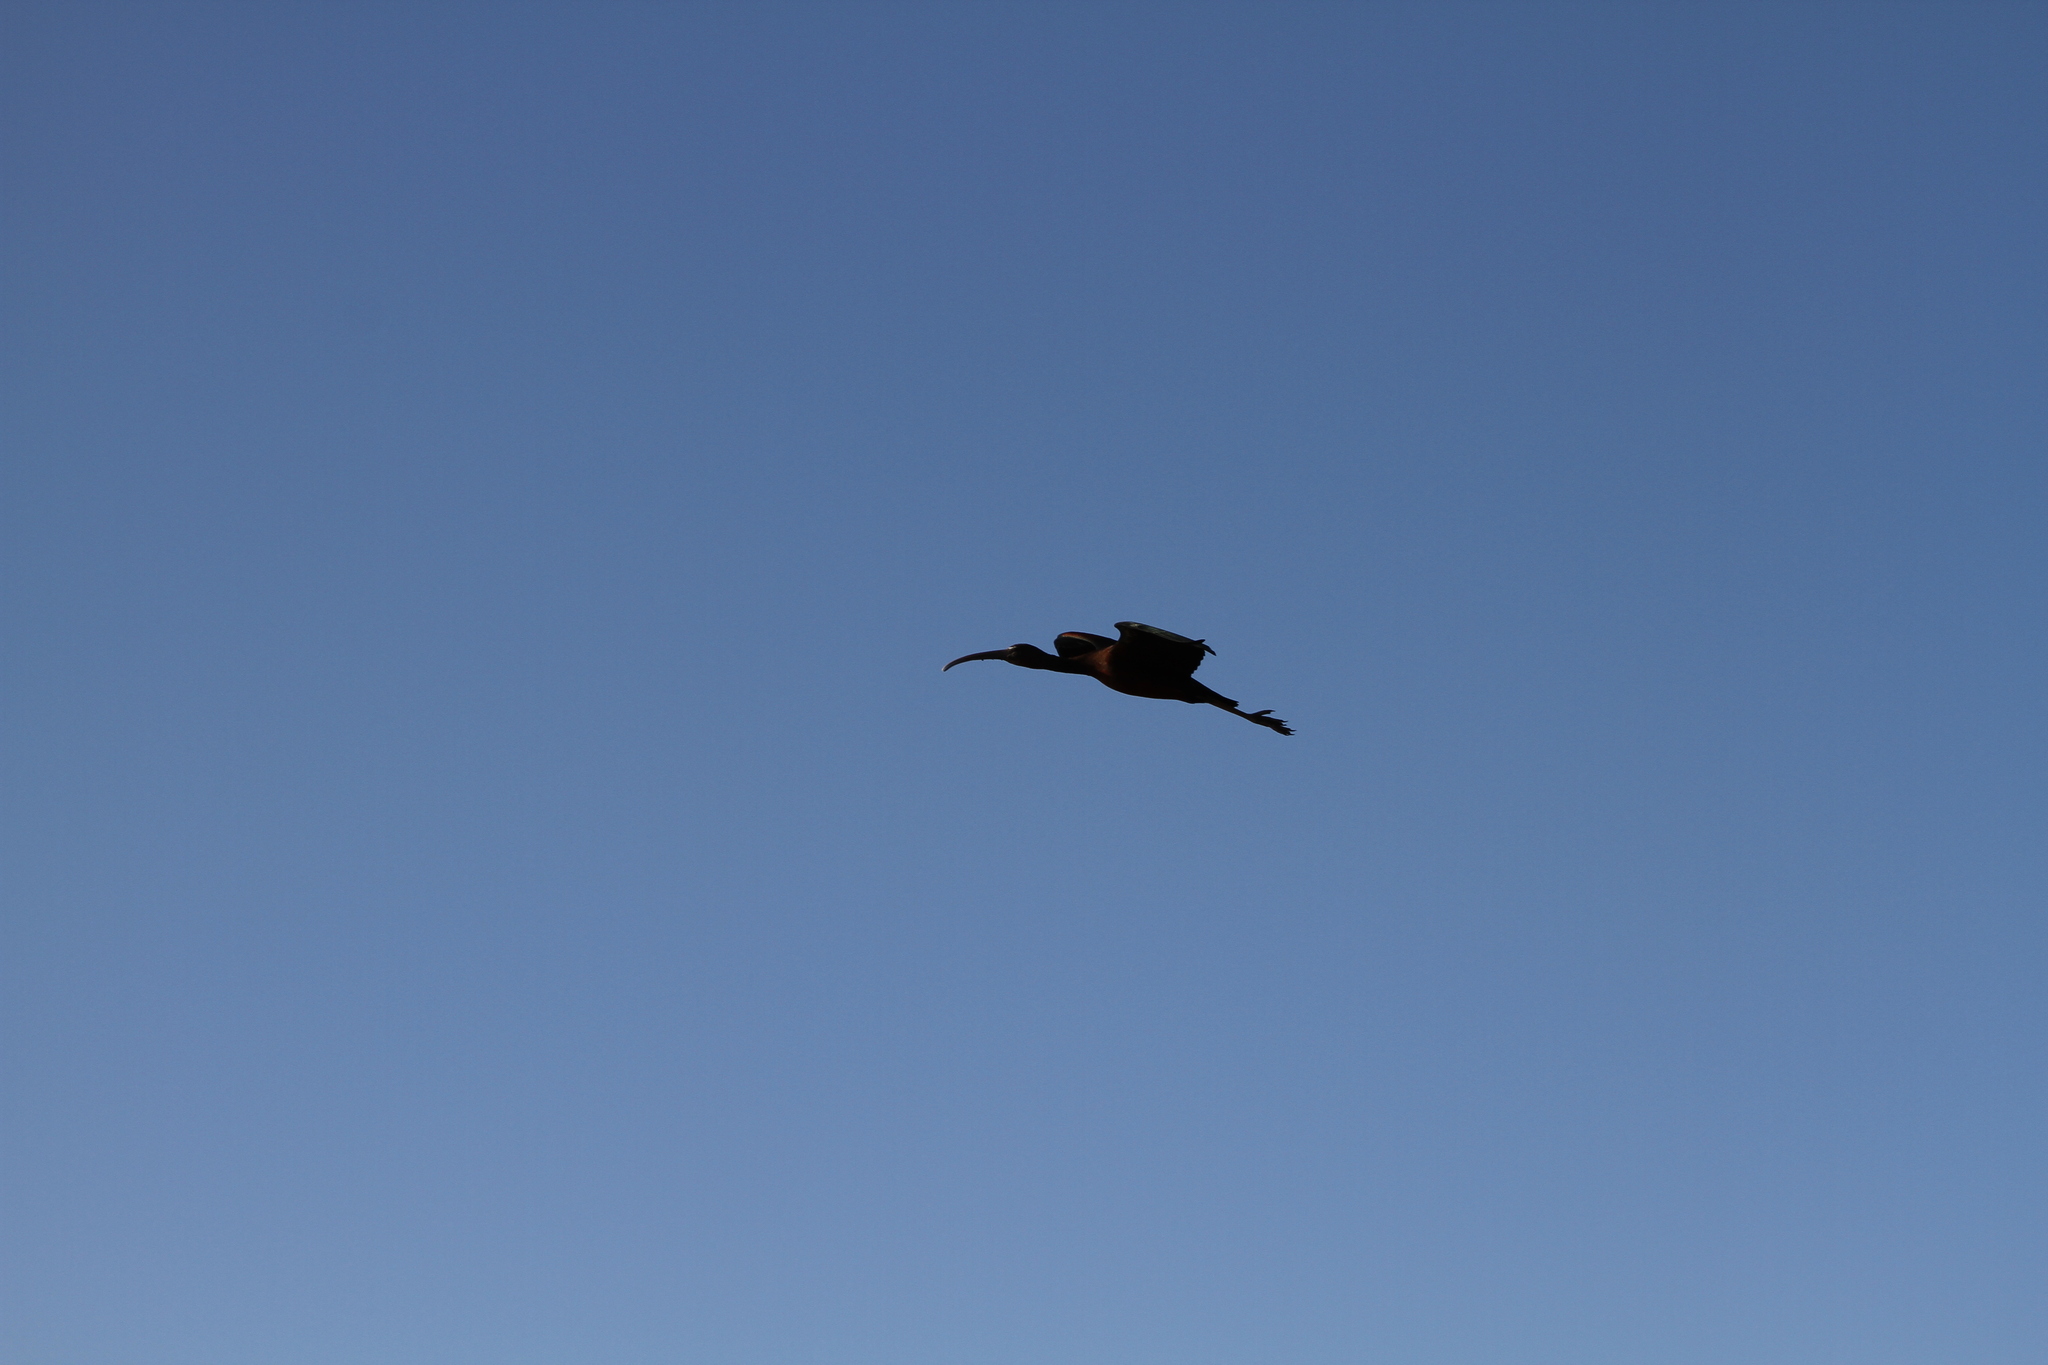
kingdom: Animalia
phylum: Chordata
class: Aves
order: Pelecaniformes
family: Threskiornithidae
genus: Plegadis
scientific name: Plegadis falcinellus
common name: Glossy ibis
